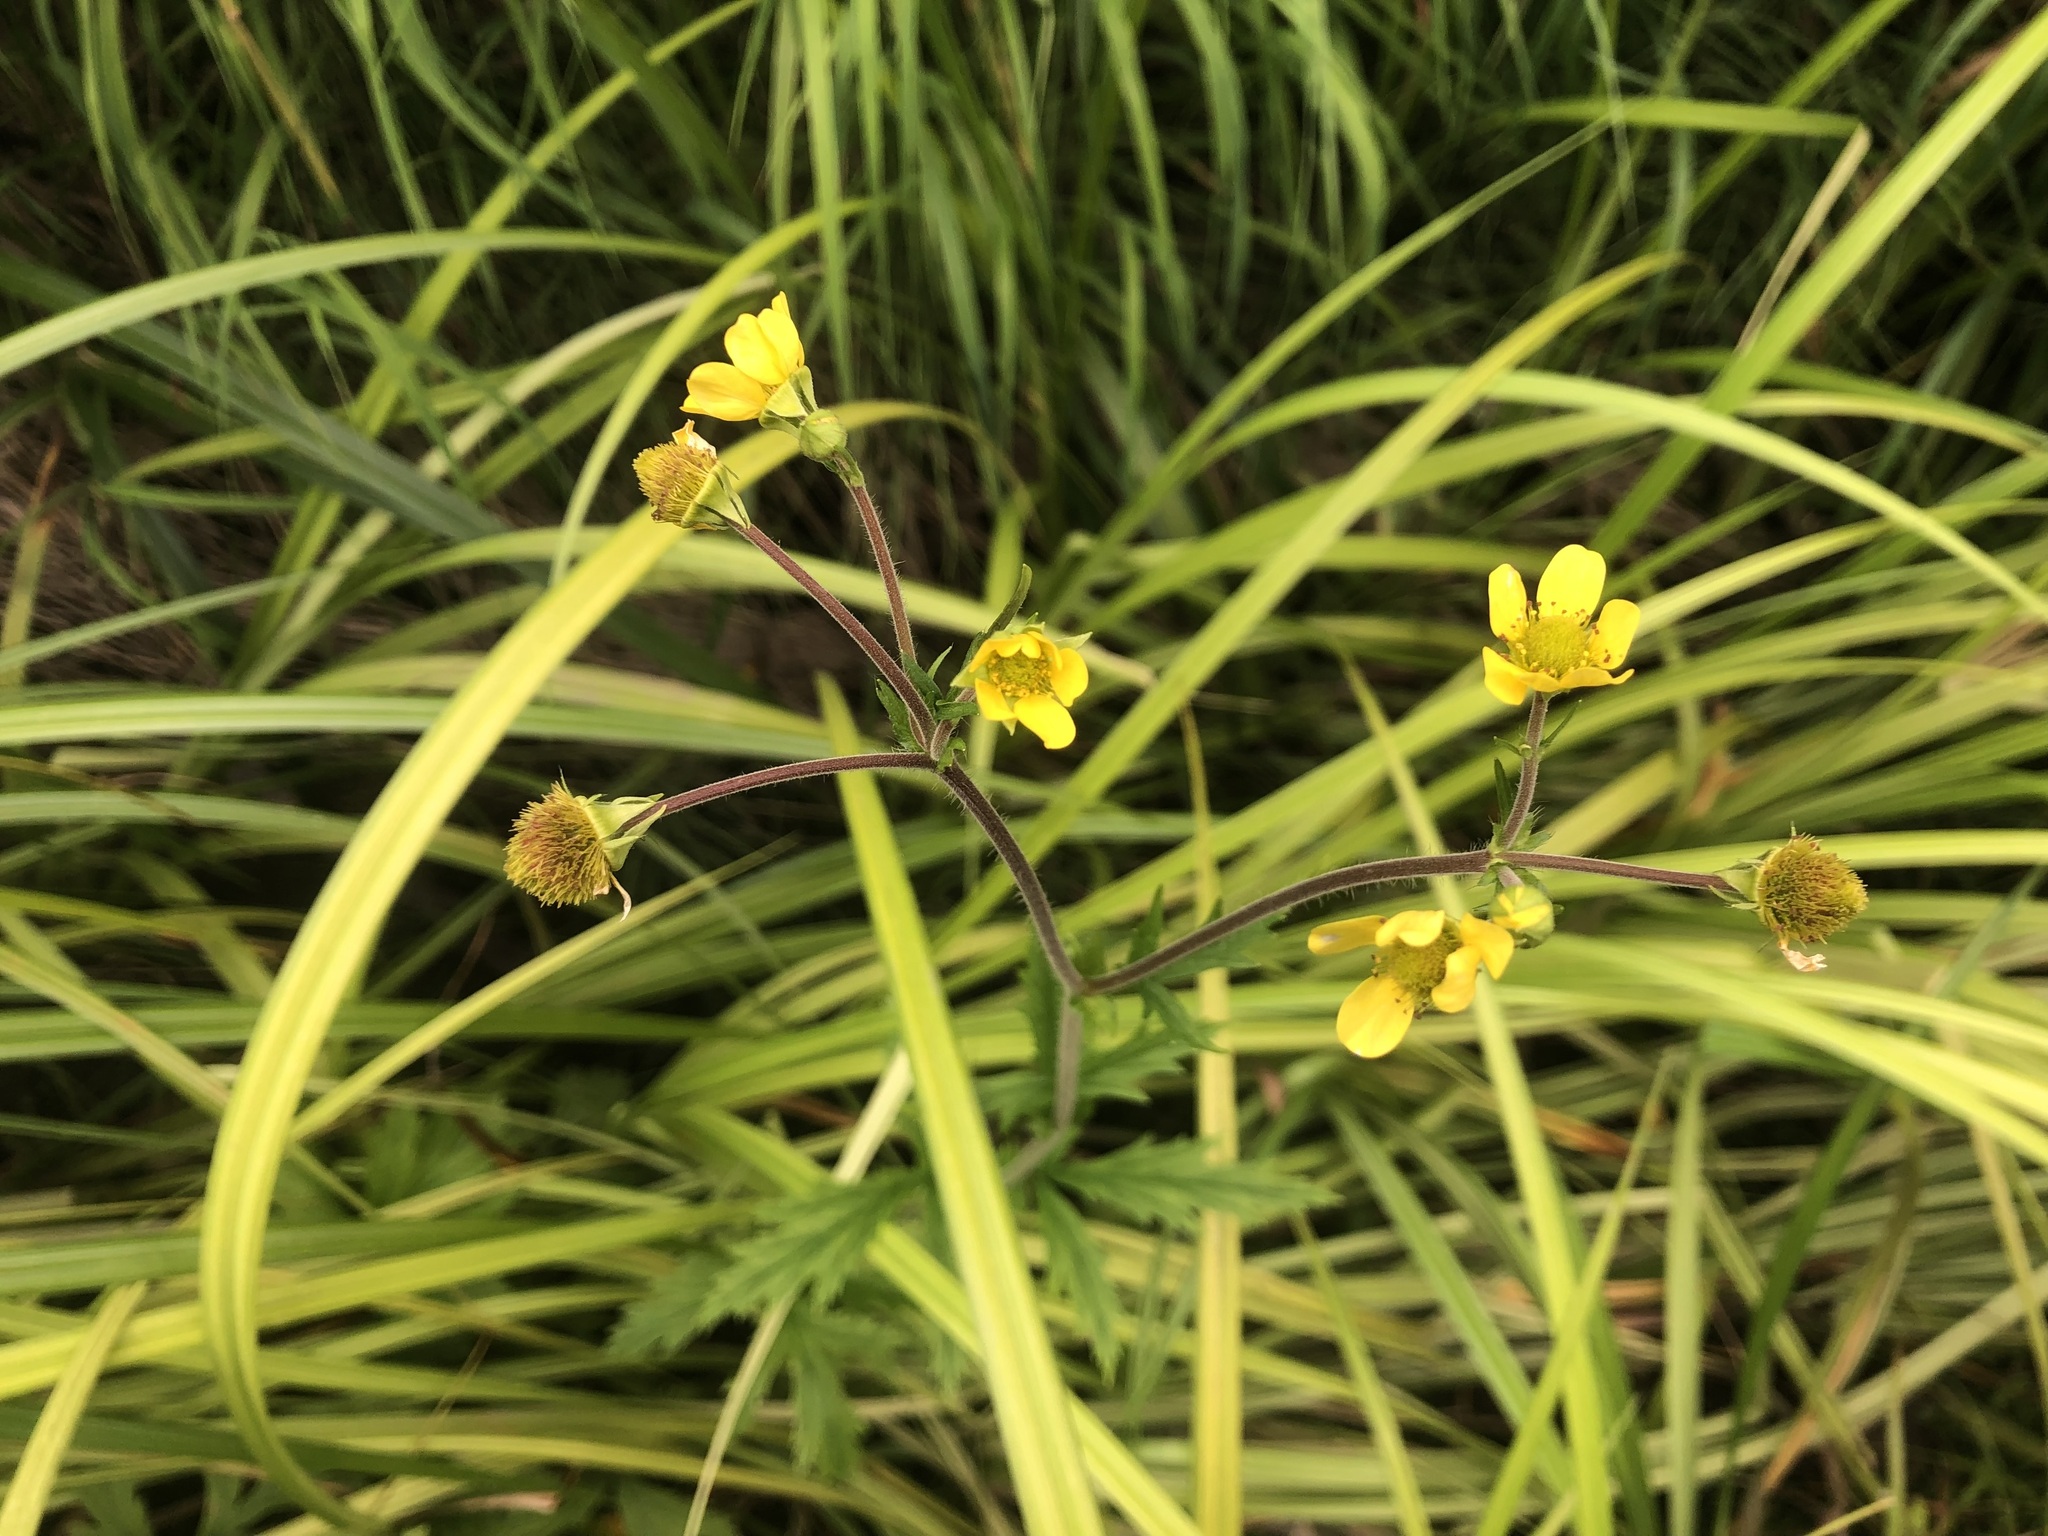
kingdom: Plantae
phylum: Tracheophyta
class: Magnoliopsida
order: Rosales
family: Rosaceae
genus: Geum
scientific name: Geum macrophyllum
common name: Large-leaved avens
